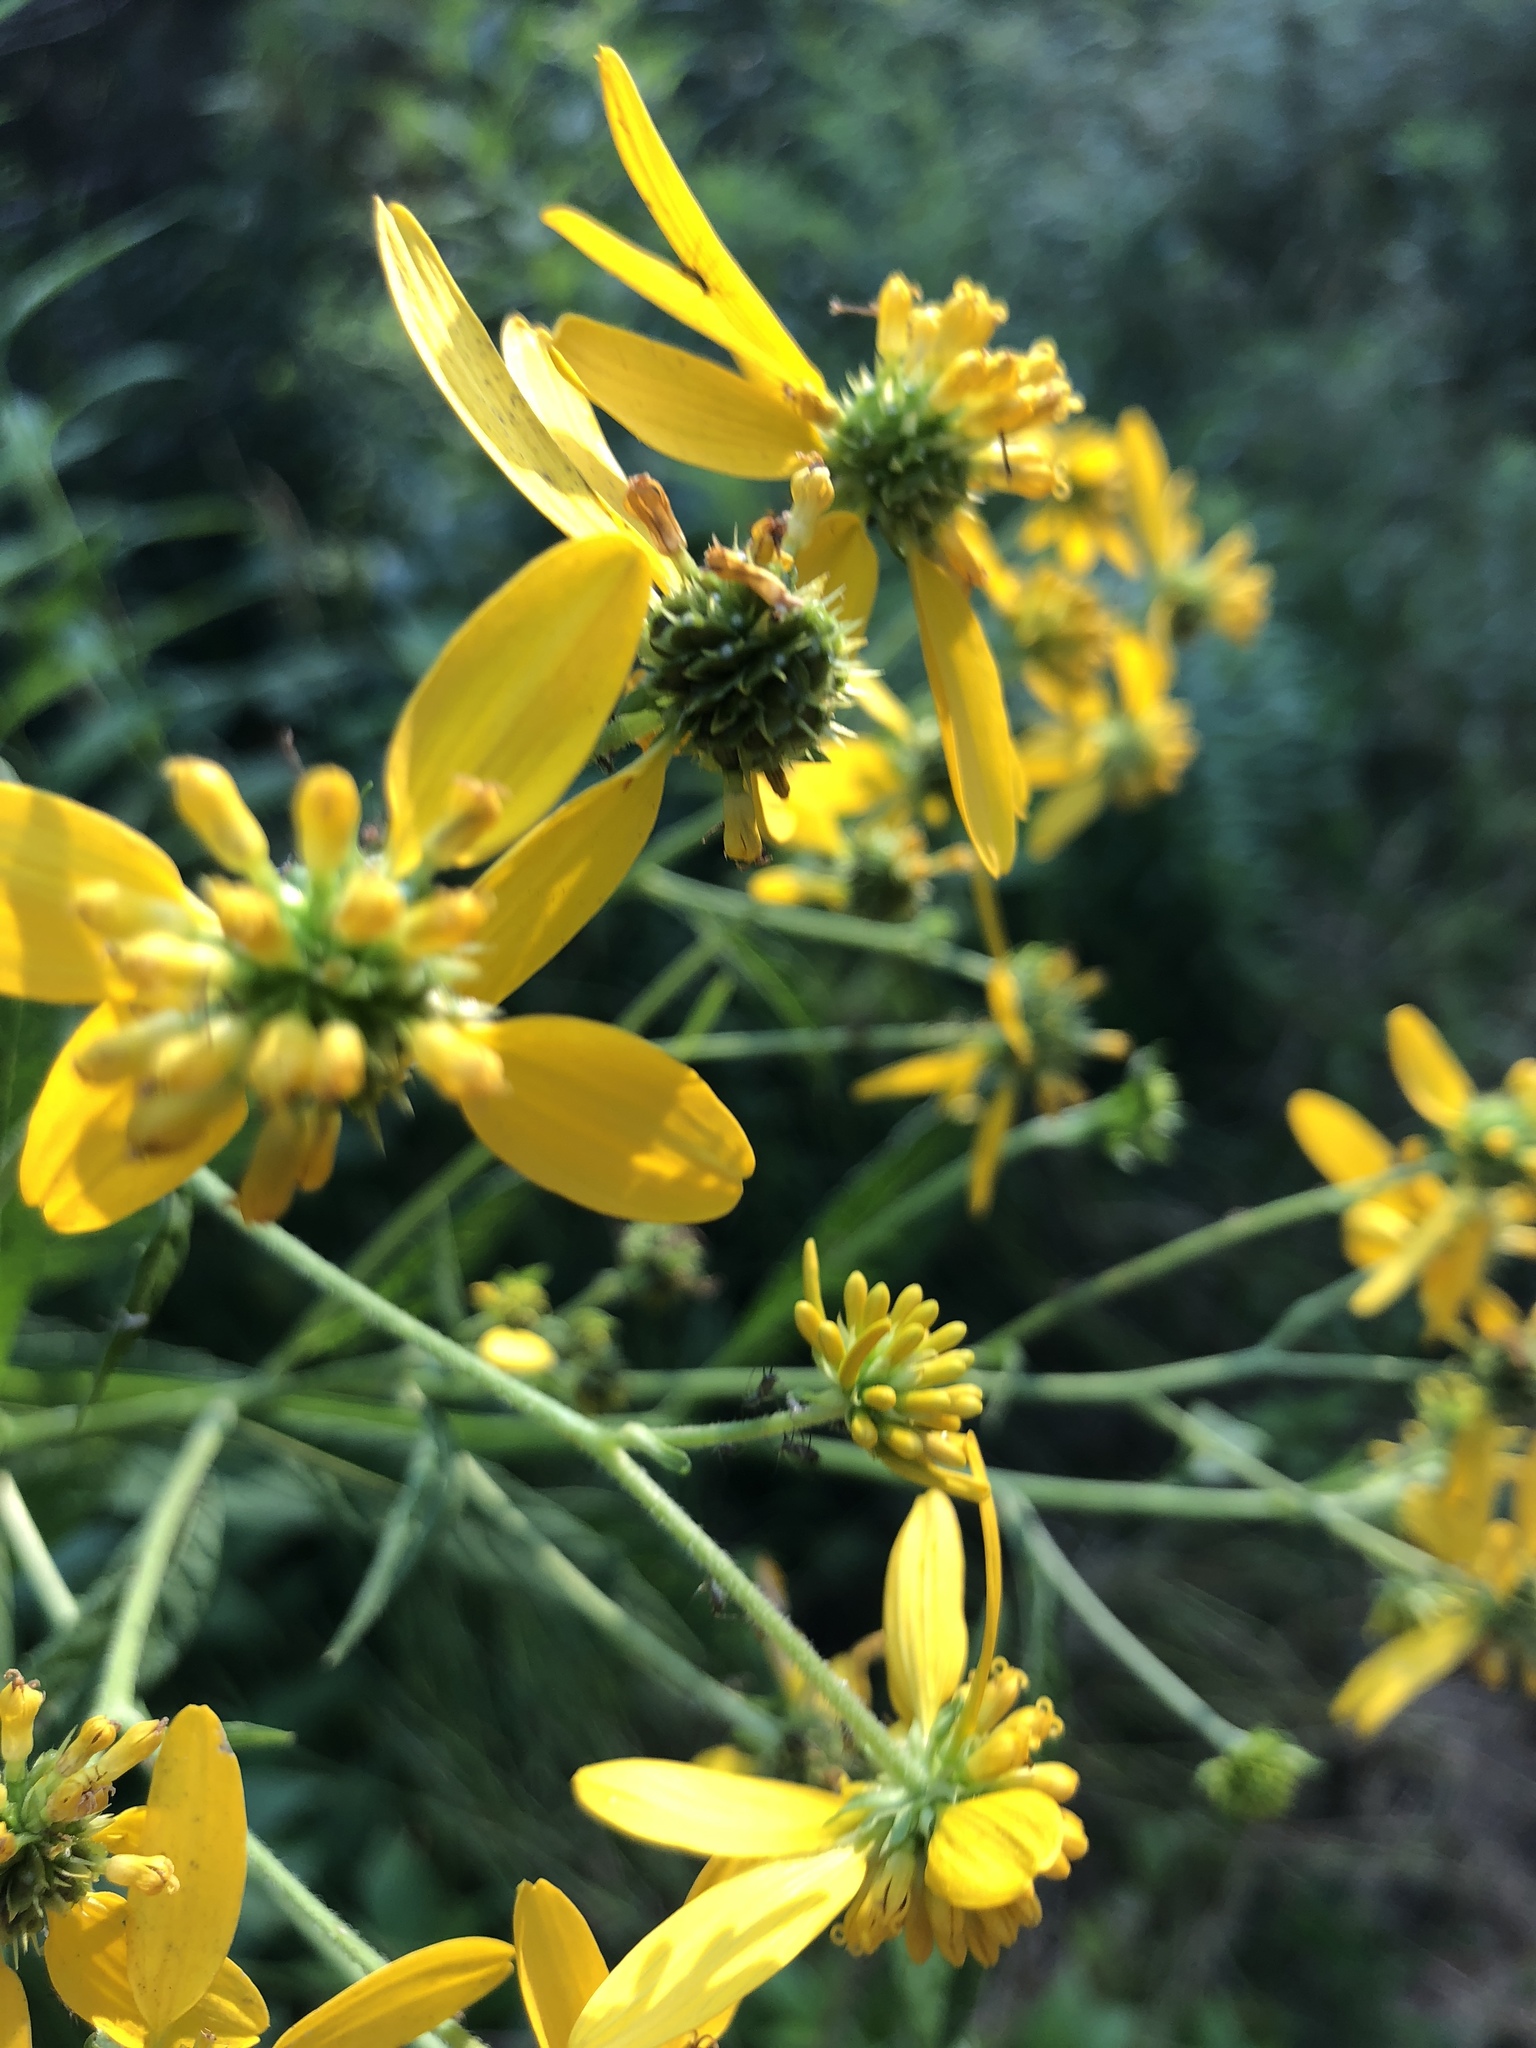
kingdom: Plantae
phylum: Tracheophyta
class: Magnoliopsida
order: Asterales
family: Asteraceae
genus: Verbesina
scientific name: Verbesina alternifolia
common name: Wingstem
